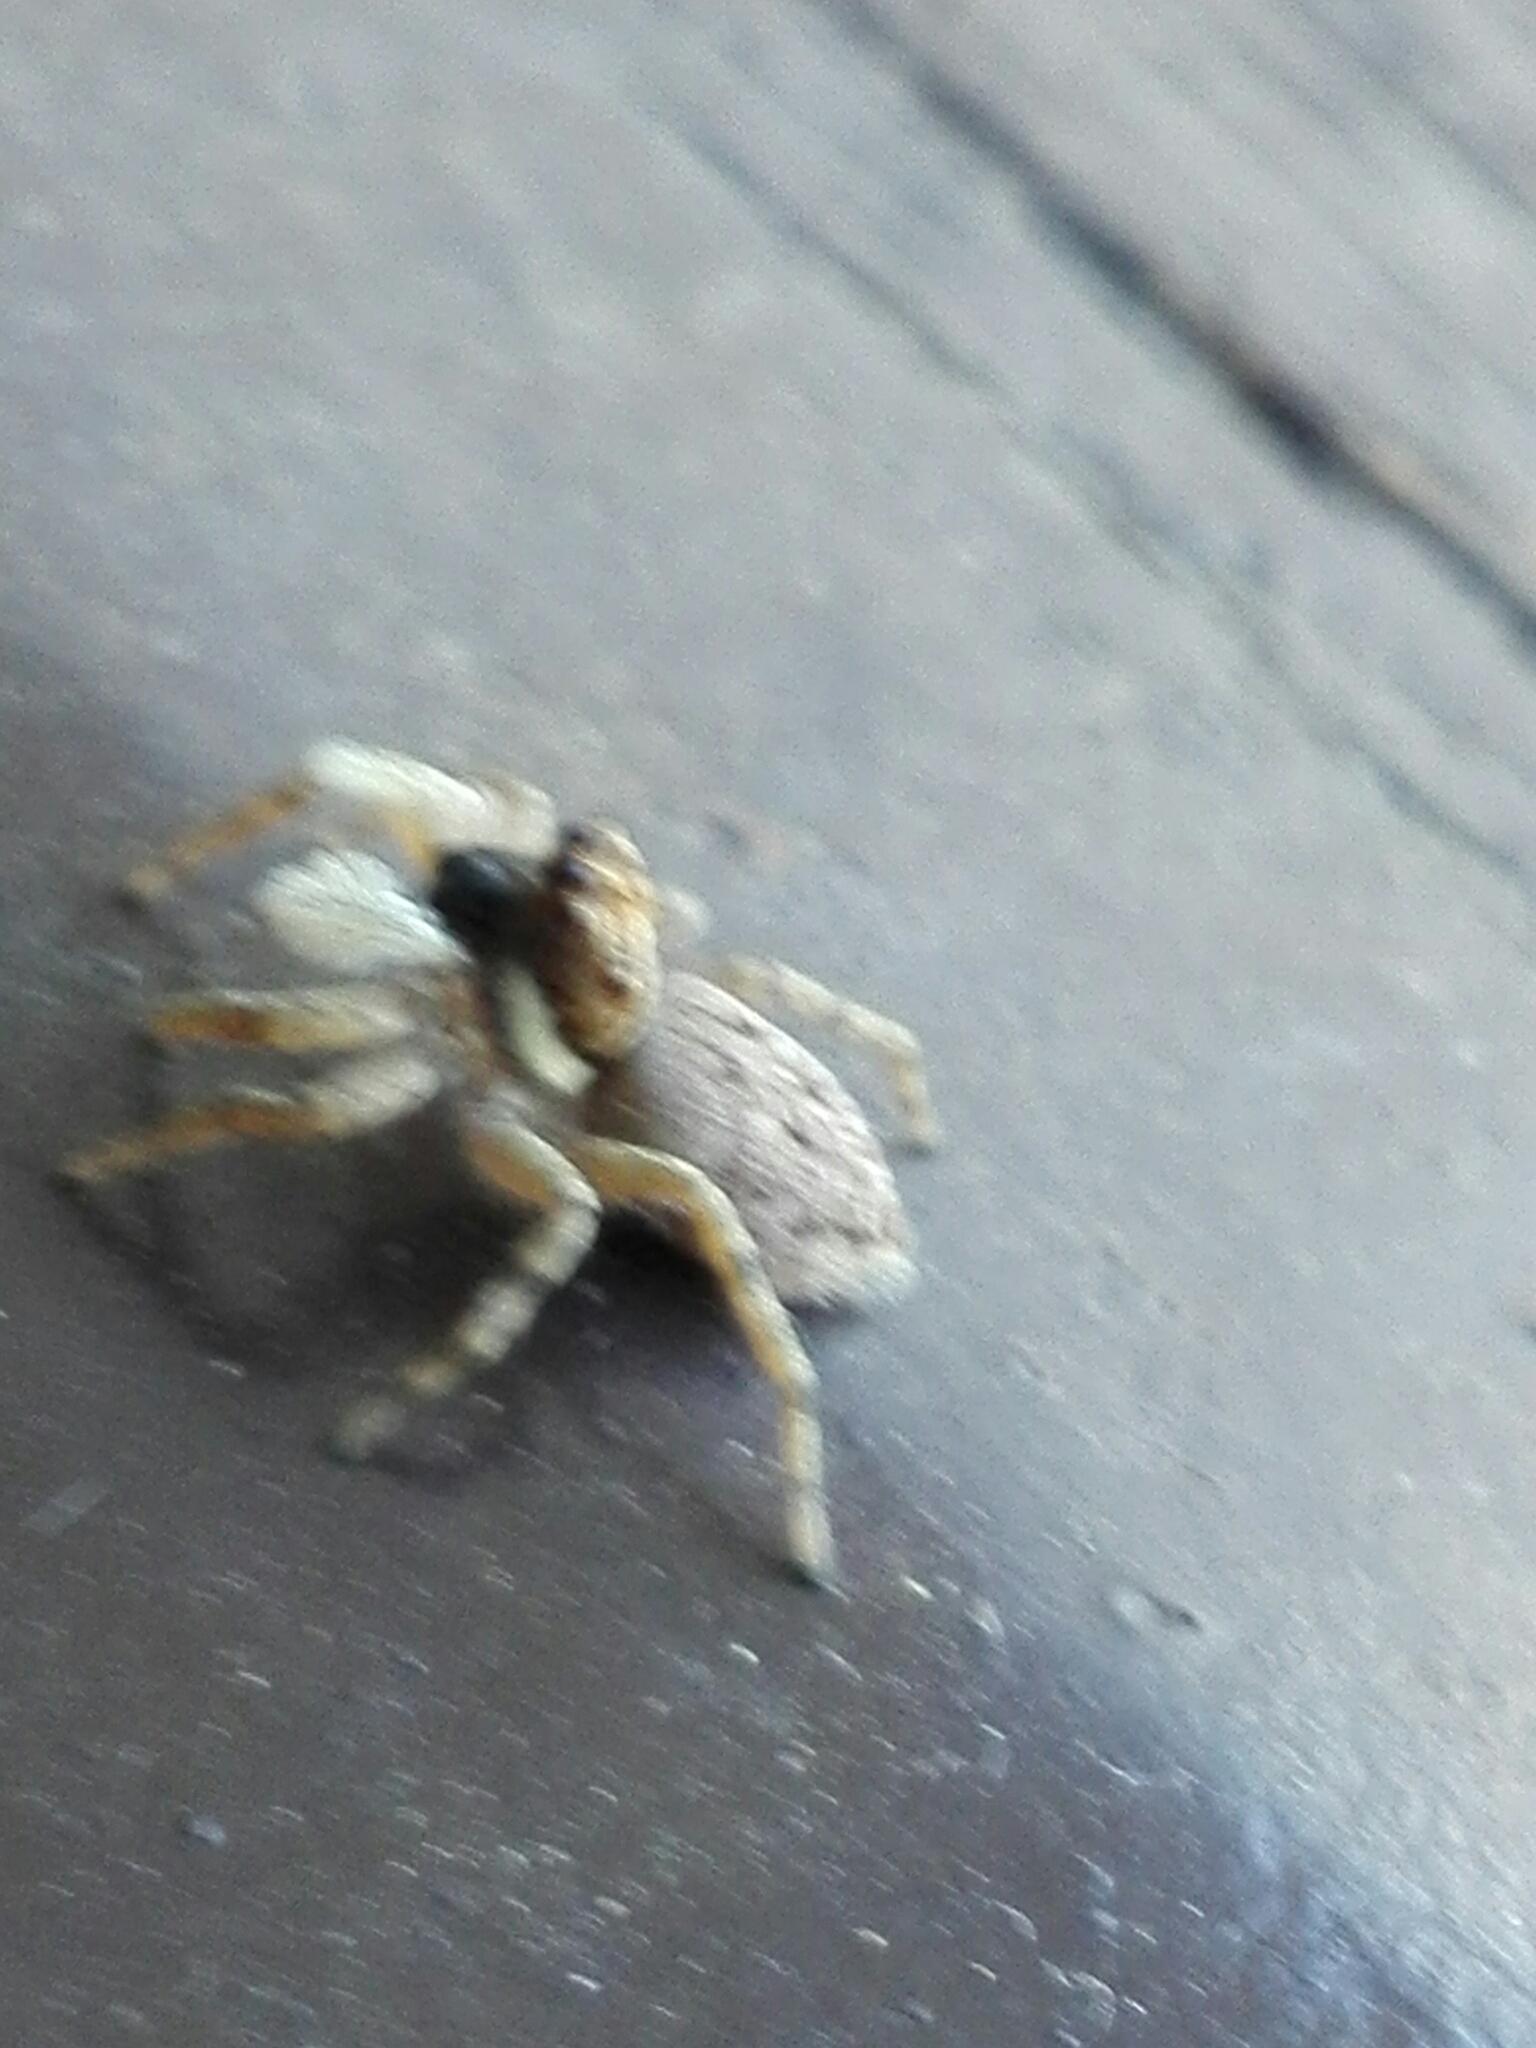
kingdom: Animalia
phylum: Arthropoda
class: Arachnida
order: Araneae
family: Salticidae
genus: Menemerus
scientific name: Menemerus semilimbatus
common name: Jumping spider
